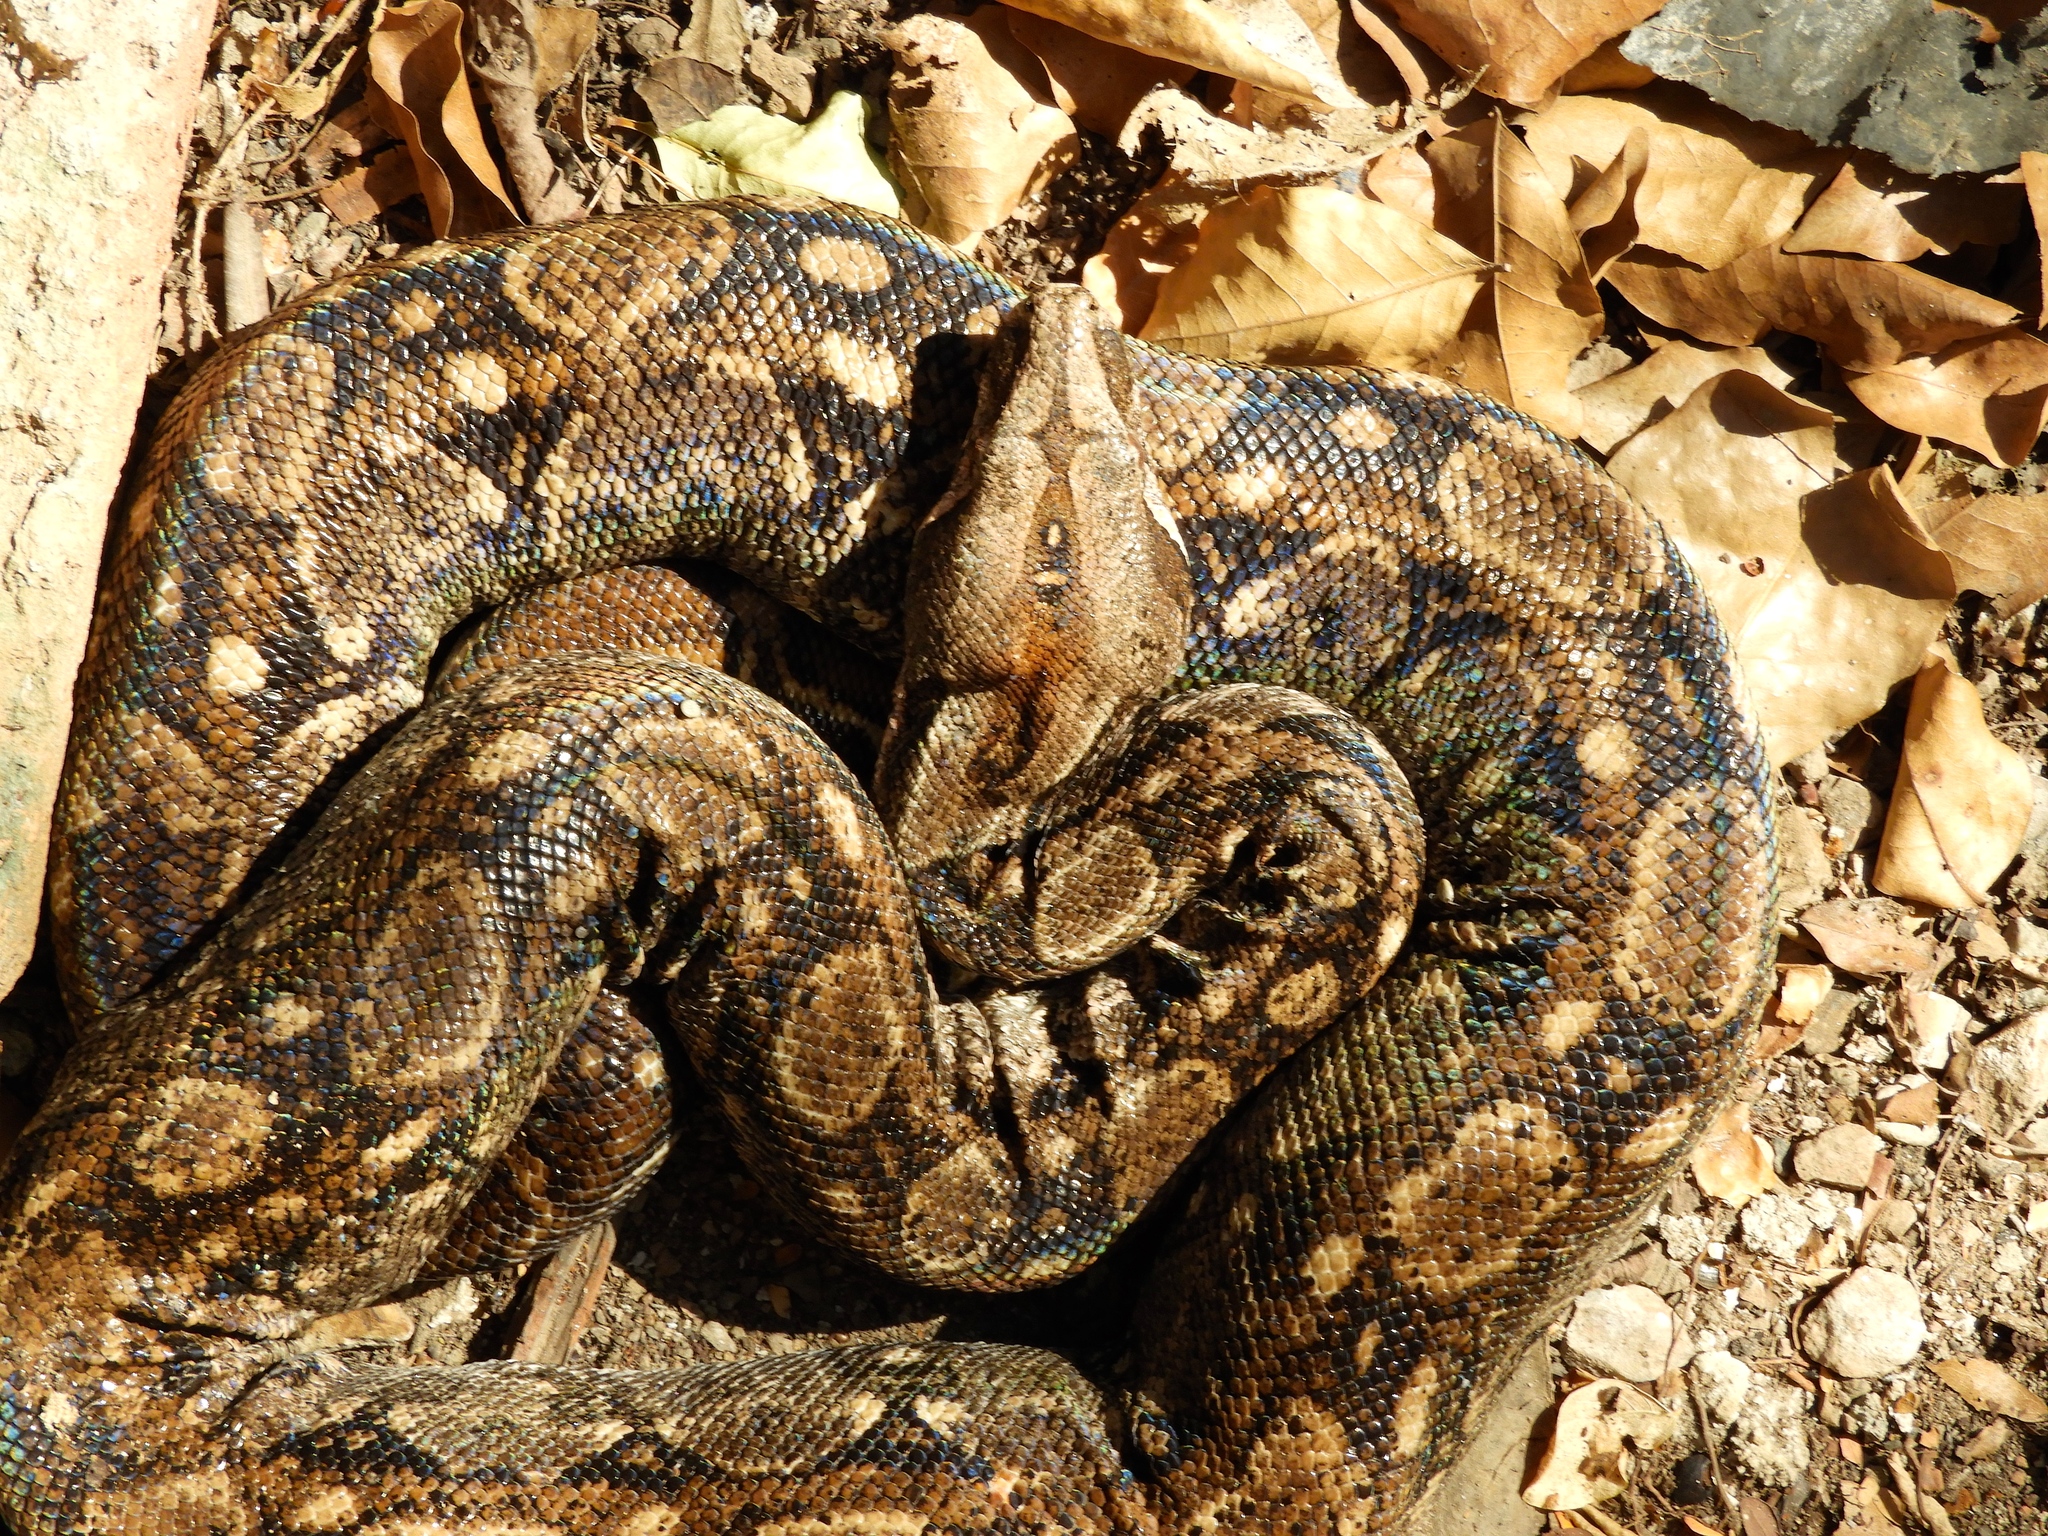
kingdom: Animalia
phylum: Chordata
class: Squamata
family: Boidae
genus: Boa
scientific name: Boa
